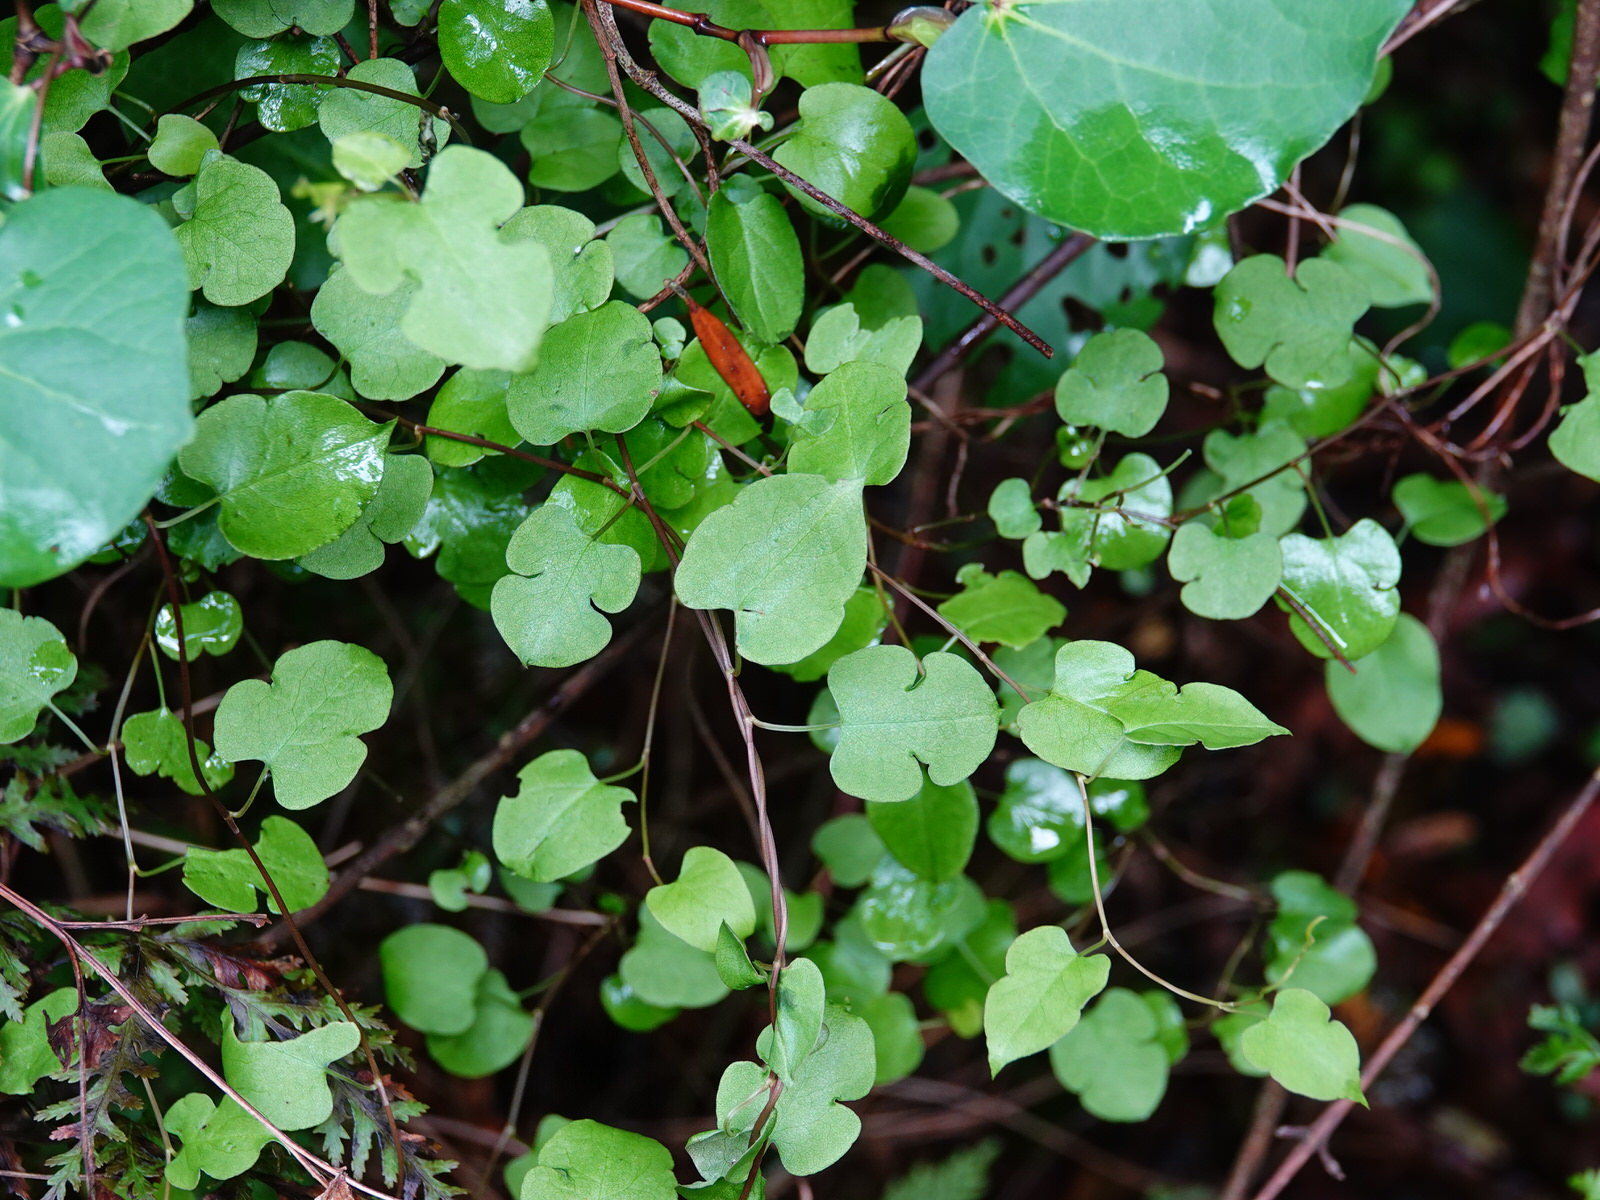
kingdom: Plantae
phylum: Tracheophyta
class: Magnoliopsida
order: Caryophyllales
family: Polygonaceae
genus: Muehlenbeckia
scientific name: Muehlenbeckia australis
